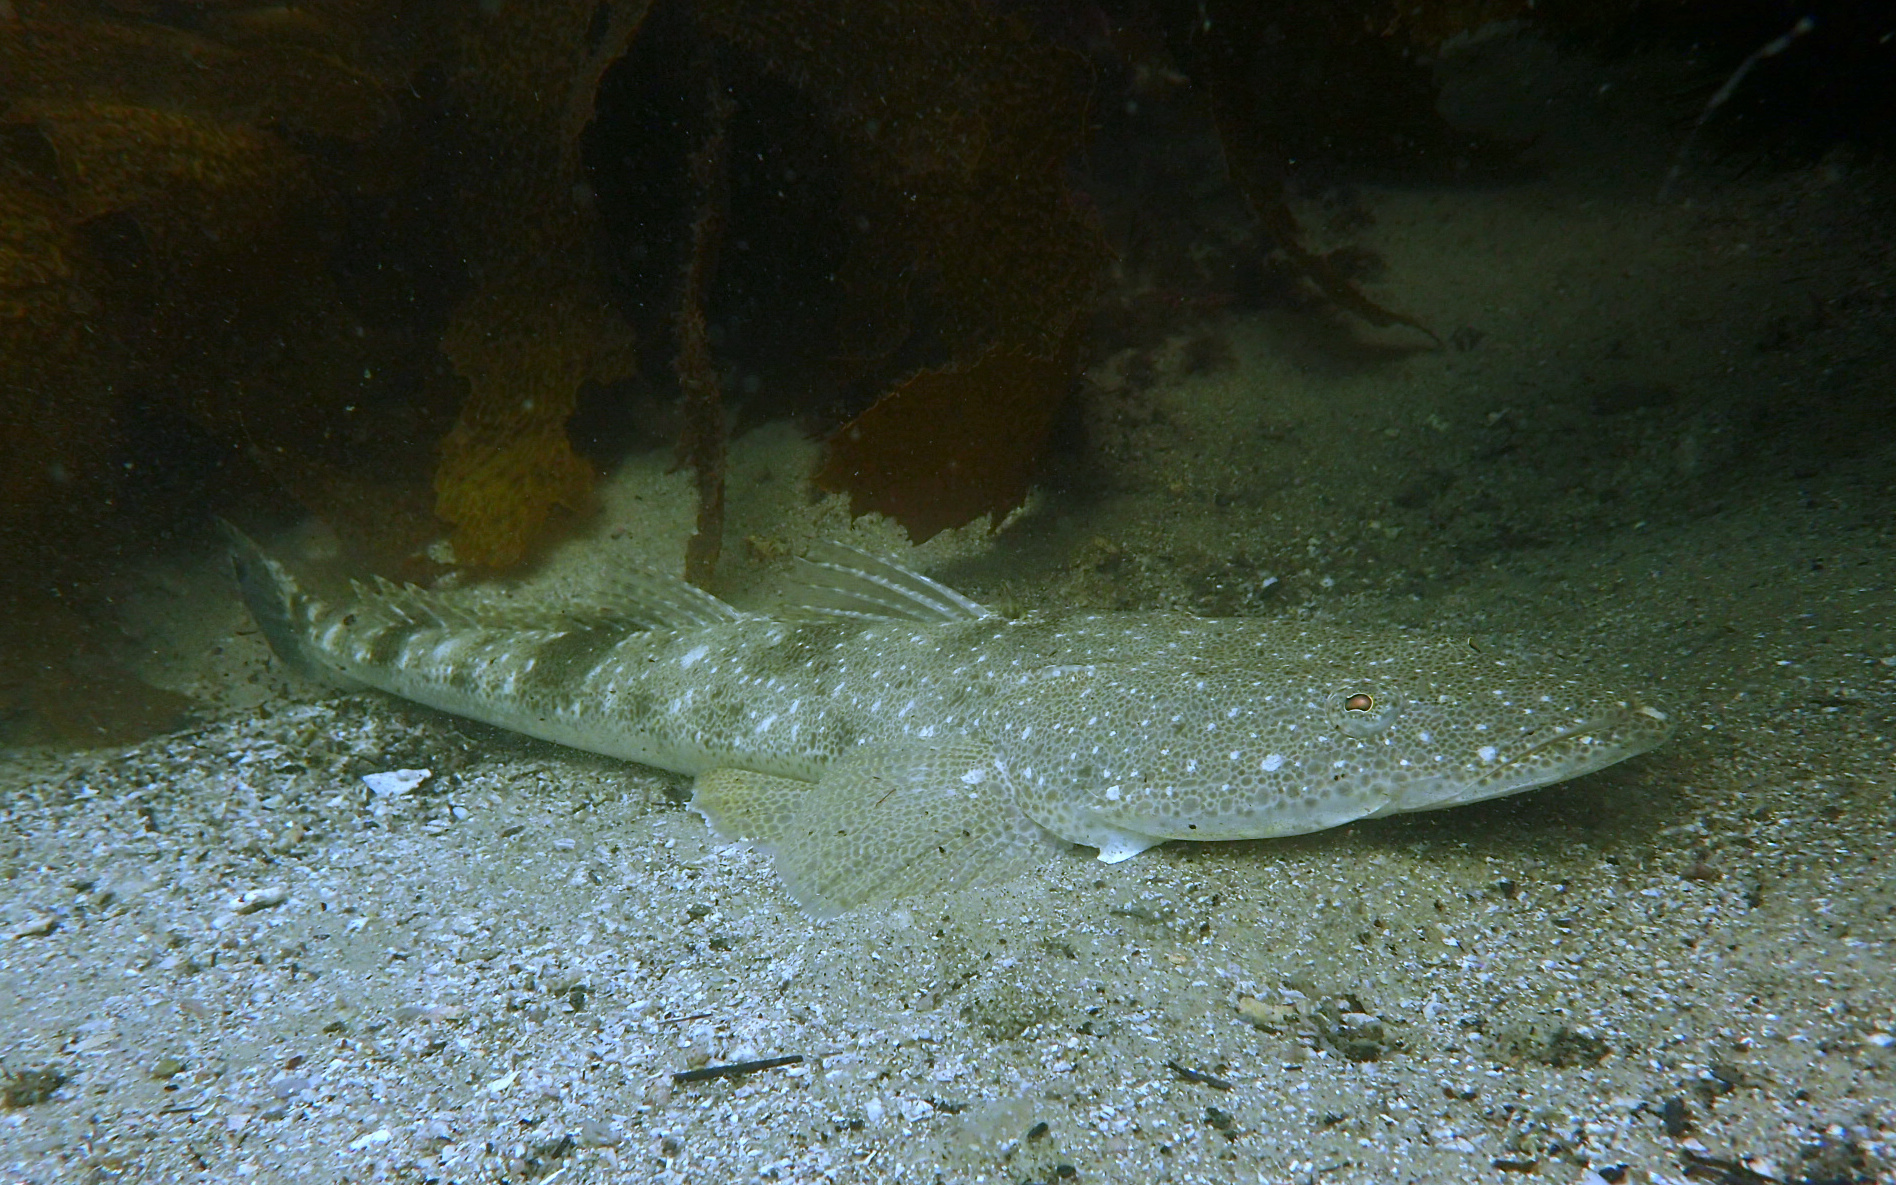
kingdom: Animalia
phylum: Chordata
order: Scorpaeniformes
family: Platycephalidae
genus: Platycephalus
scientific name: Platycephalus fuscus
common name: Dusky flathead
